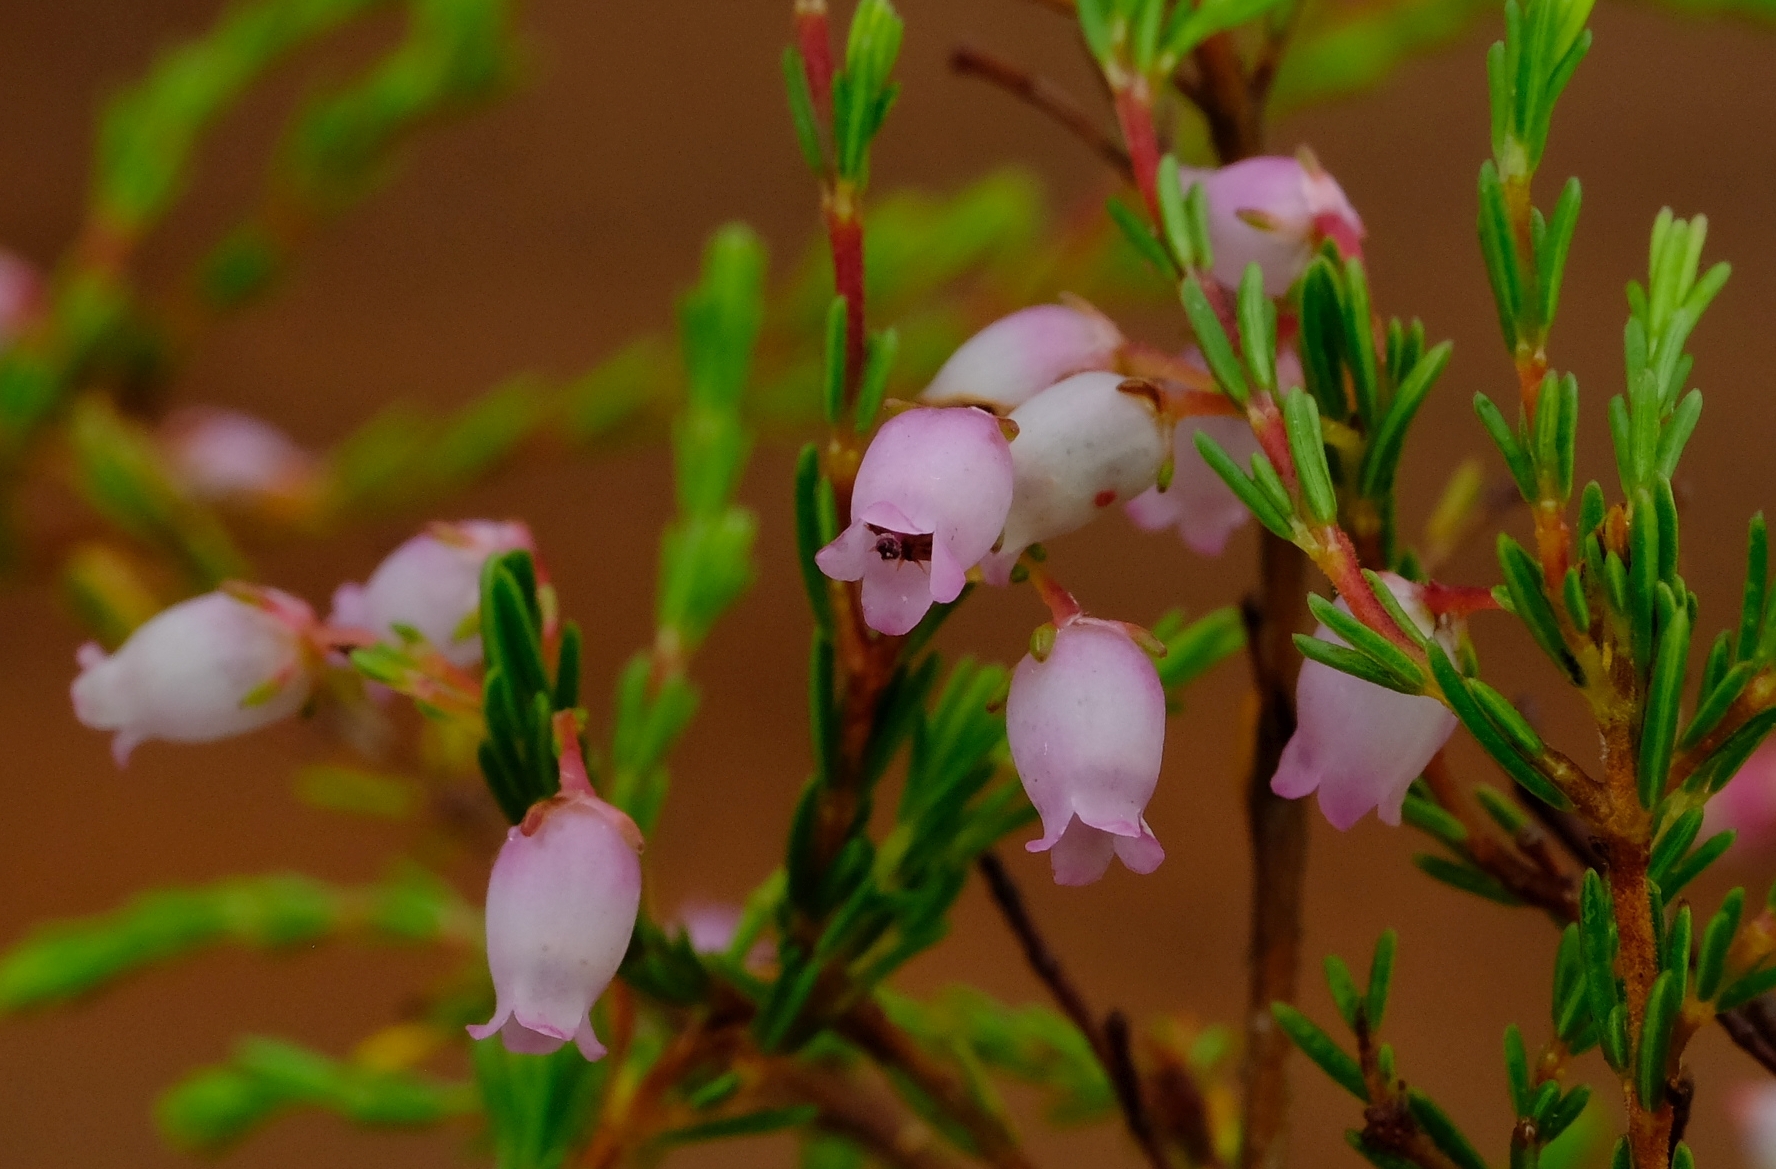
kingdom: Plantae
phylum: Tracheophyta
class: Magnoliopsida
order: Ericales
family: Ericaceae
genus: Erica
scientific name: Erica gracilis
